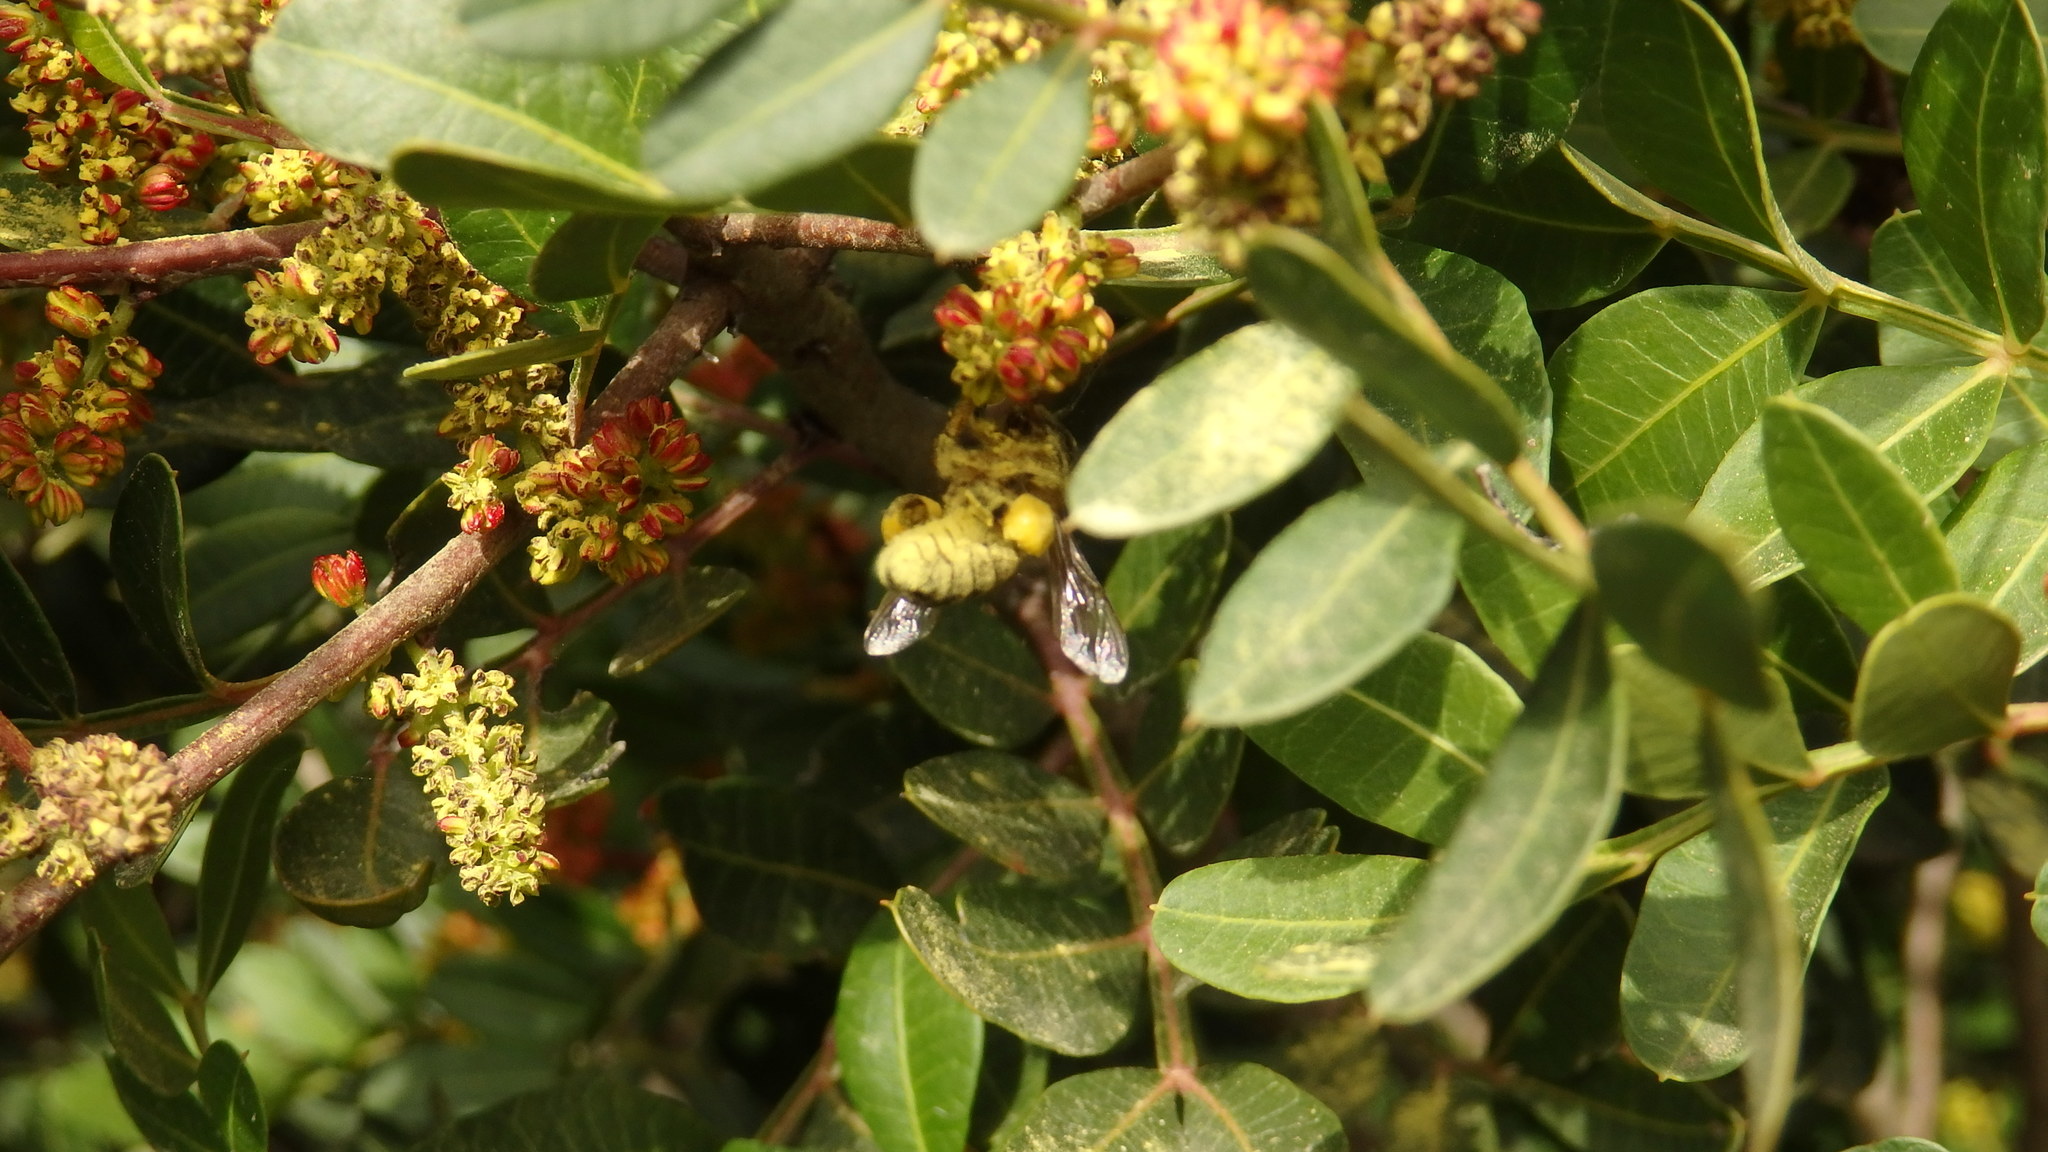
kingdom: Animalia
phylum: Arthropoda
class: Insecta
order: Hymenoptera
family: Apidae
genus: Apis
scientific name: Apis mellifera
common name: Honey bee
